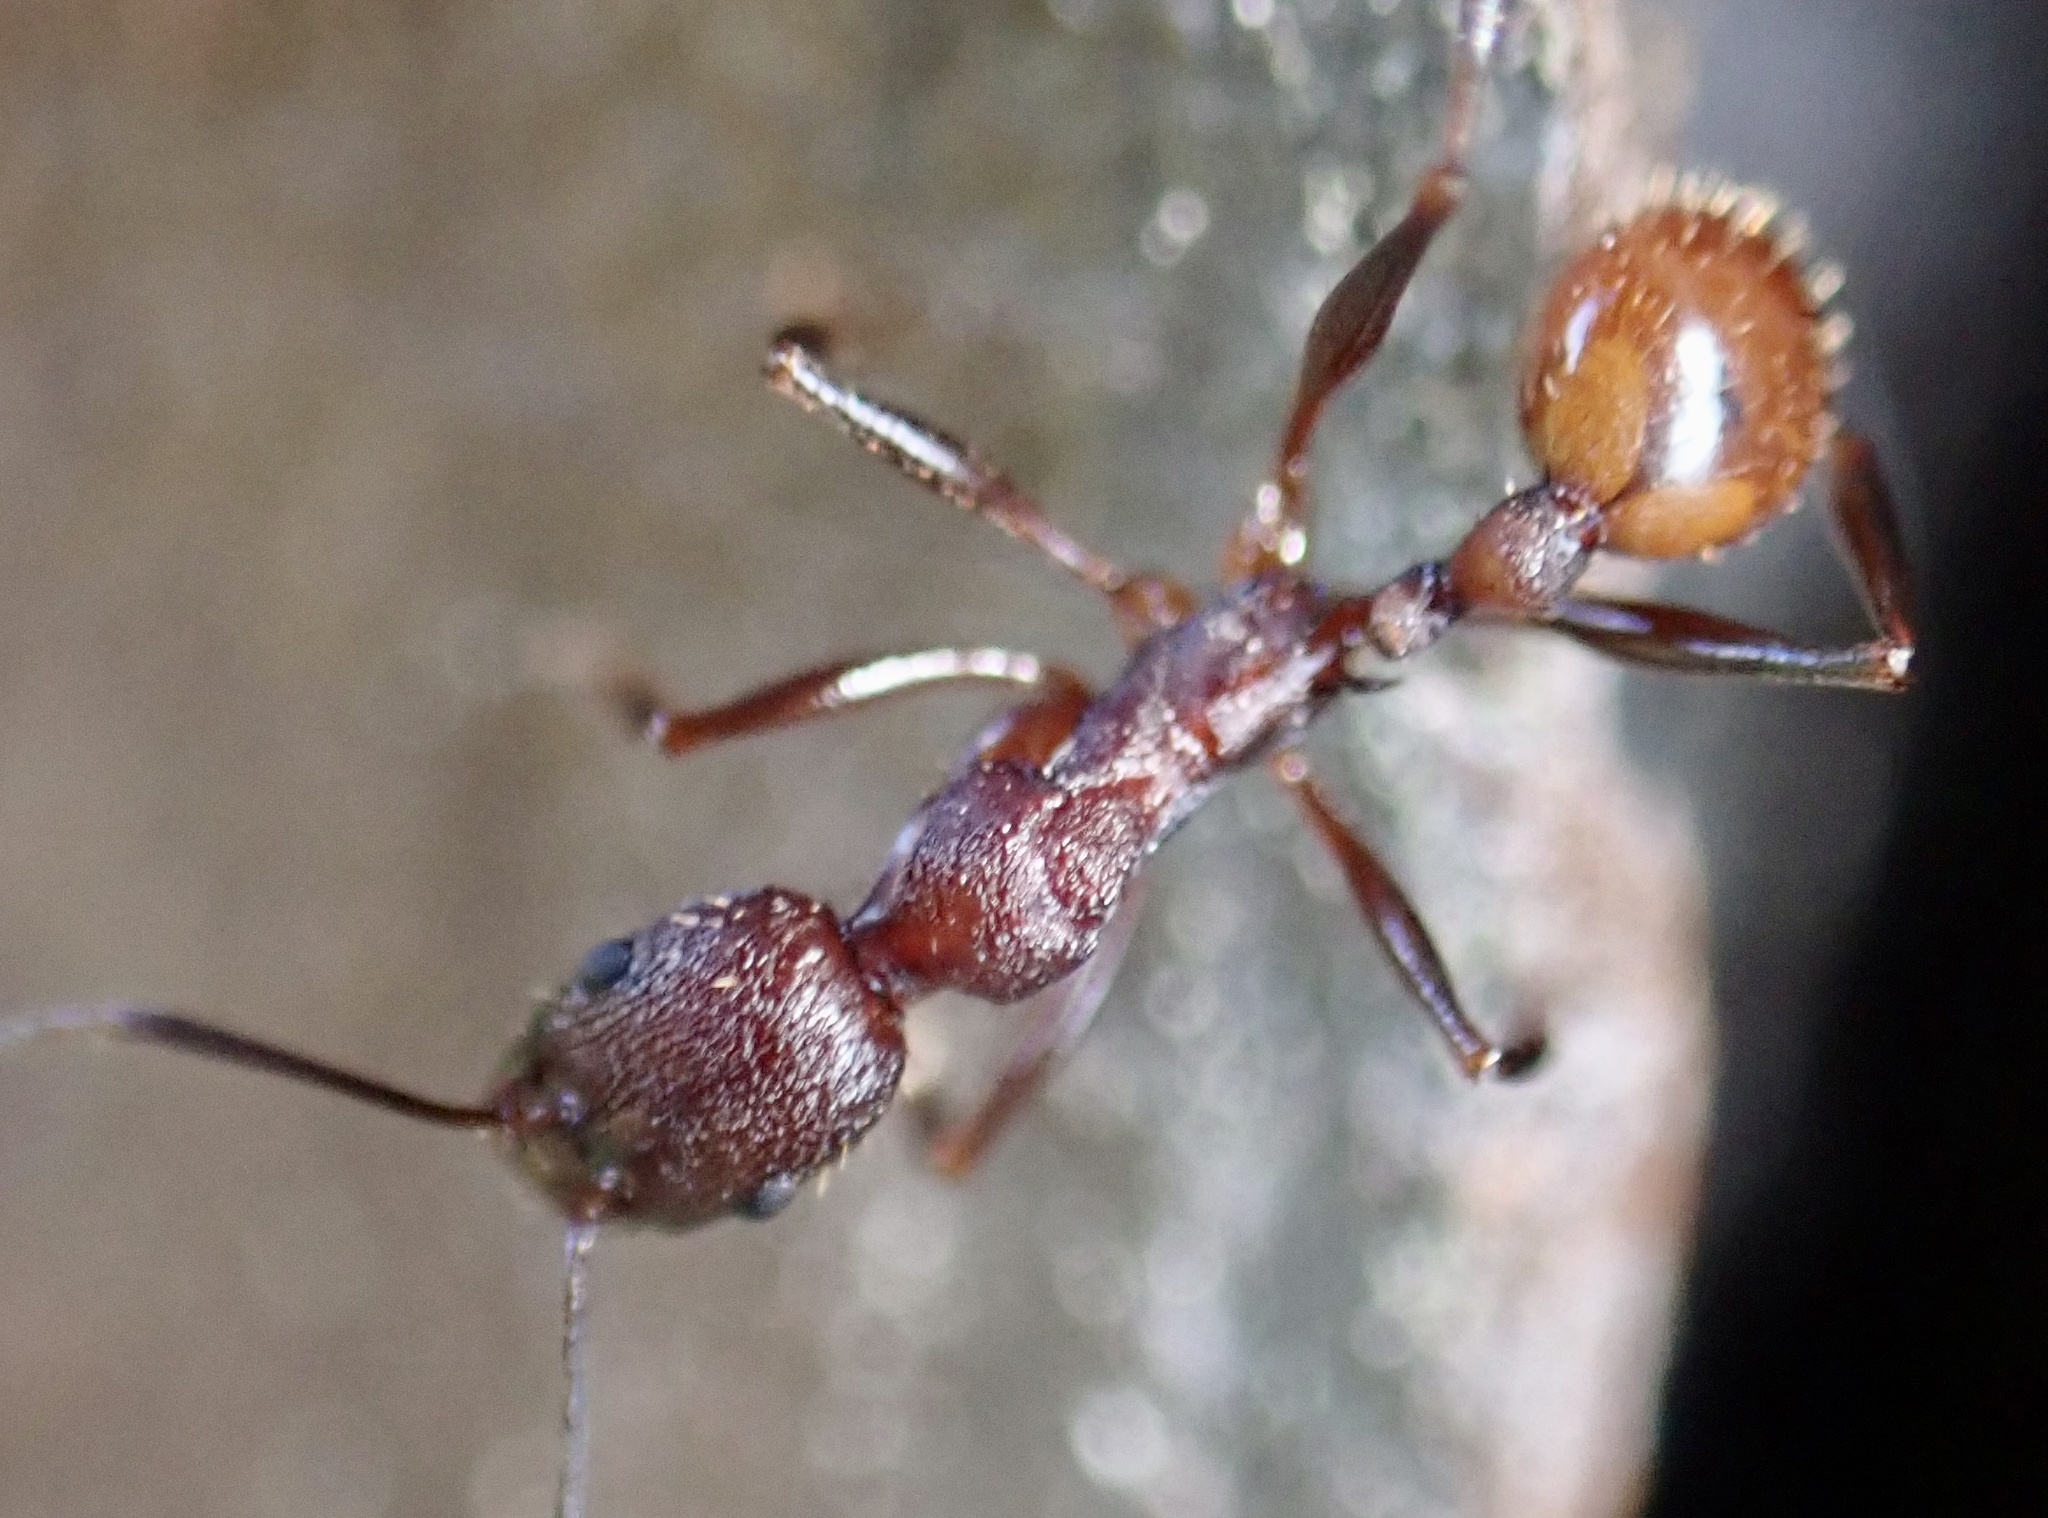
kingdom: Animalia
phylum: Arthropoda
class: Insecta
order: Hymenoptera
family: Formicidae
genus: Aphaenogaster
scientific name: Aphaenogaster lamellidens
